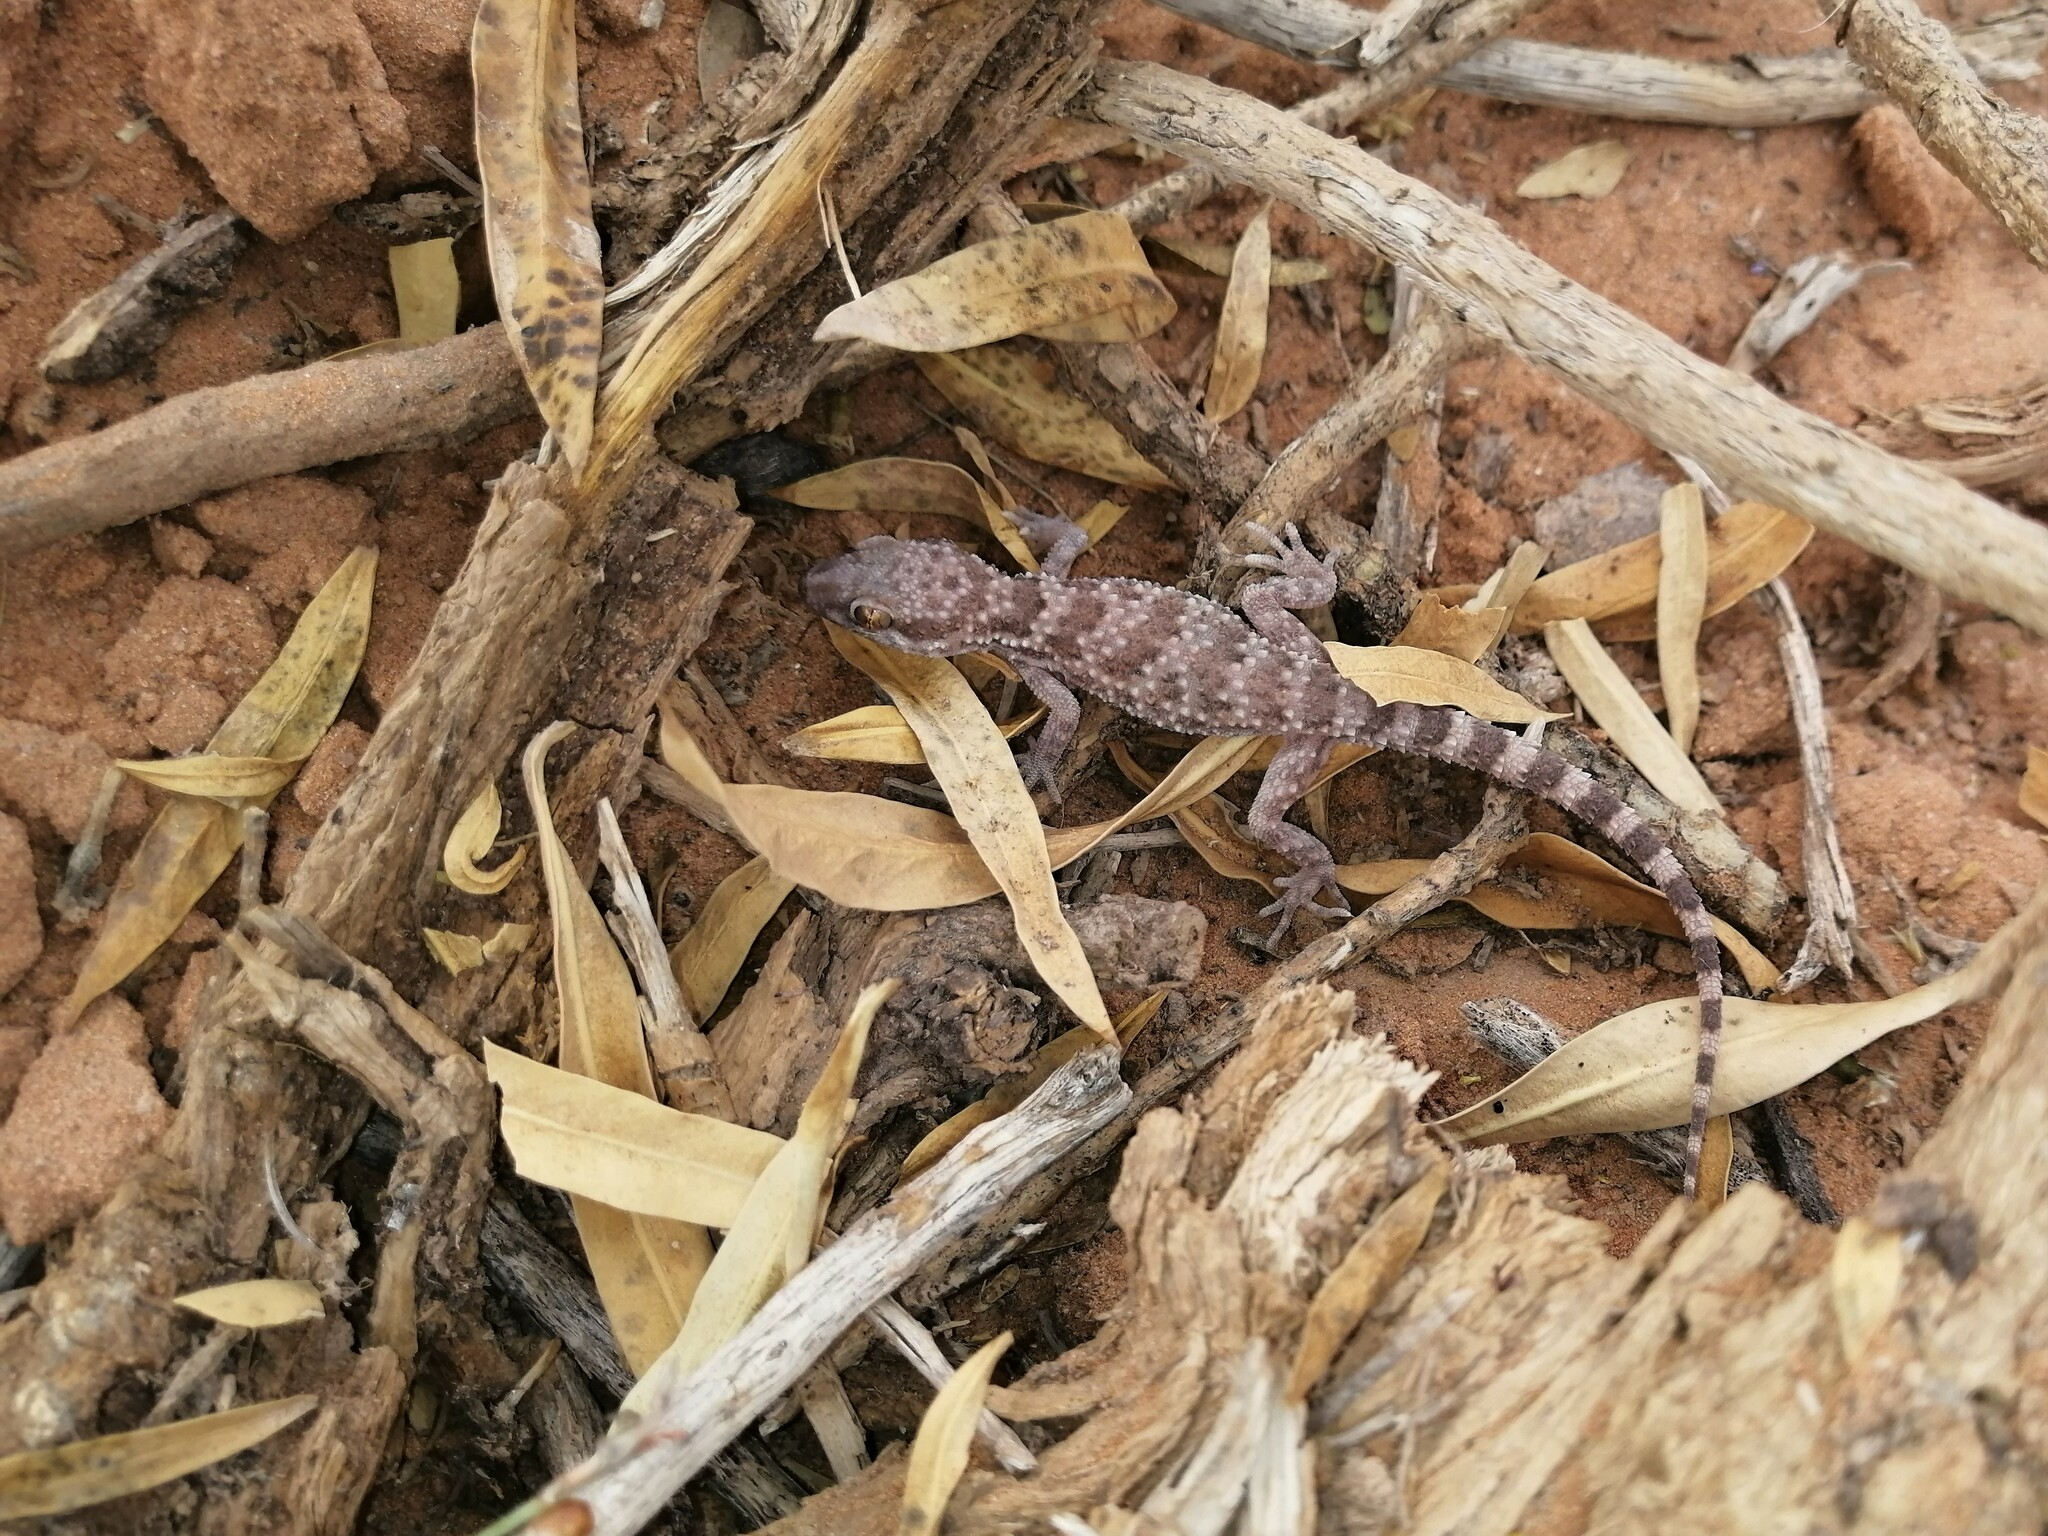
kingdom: Animalia
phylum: Chordata
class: Squamata
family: Gekkonidae
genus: Bunopus
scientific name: Bunopus tuberculatus
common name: Southern tuberculated gecko
